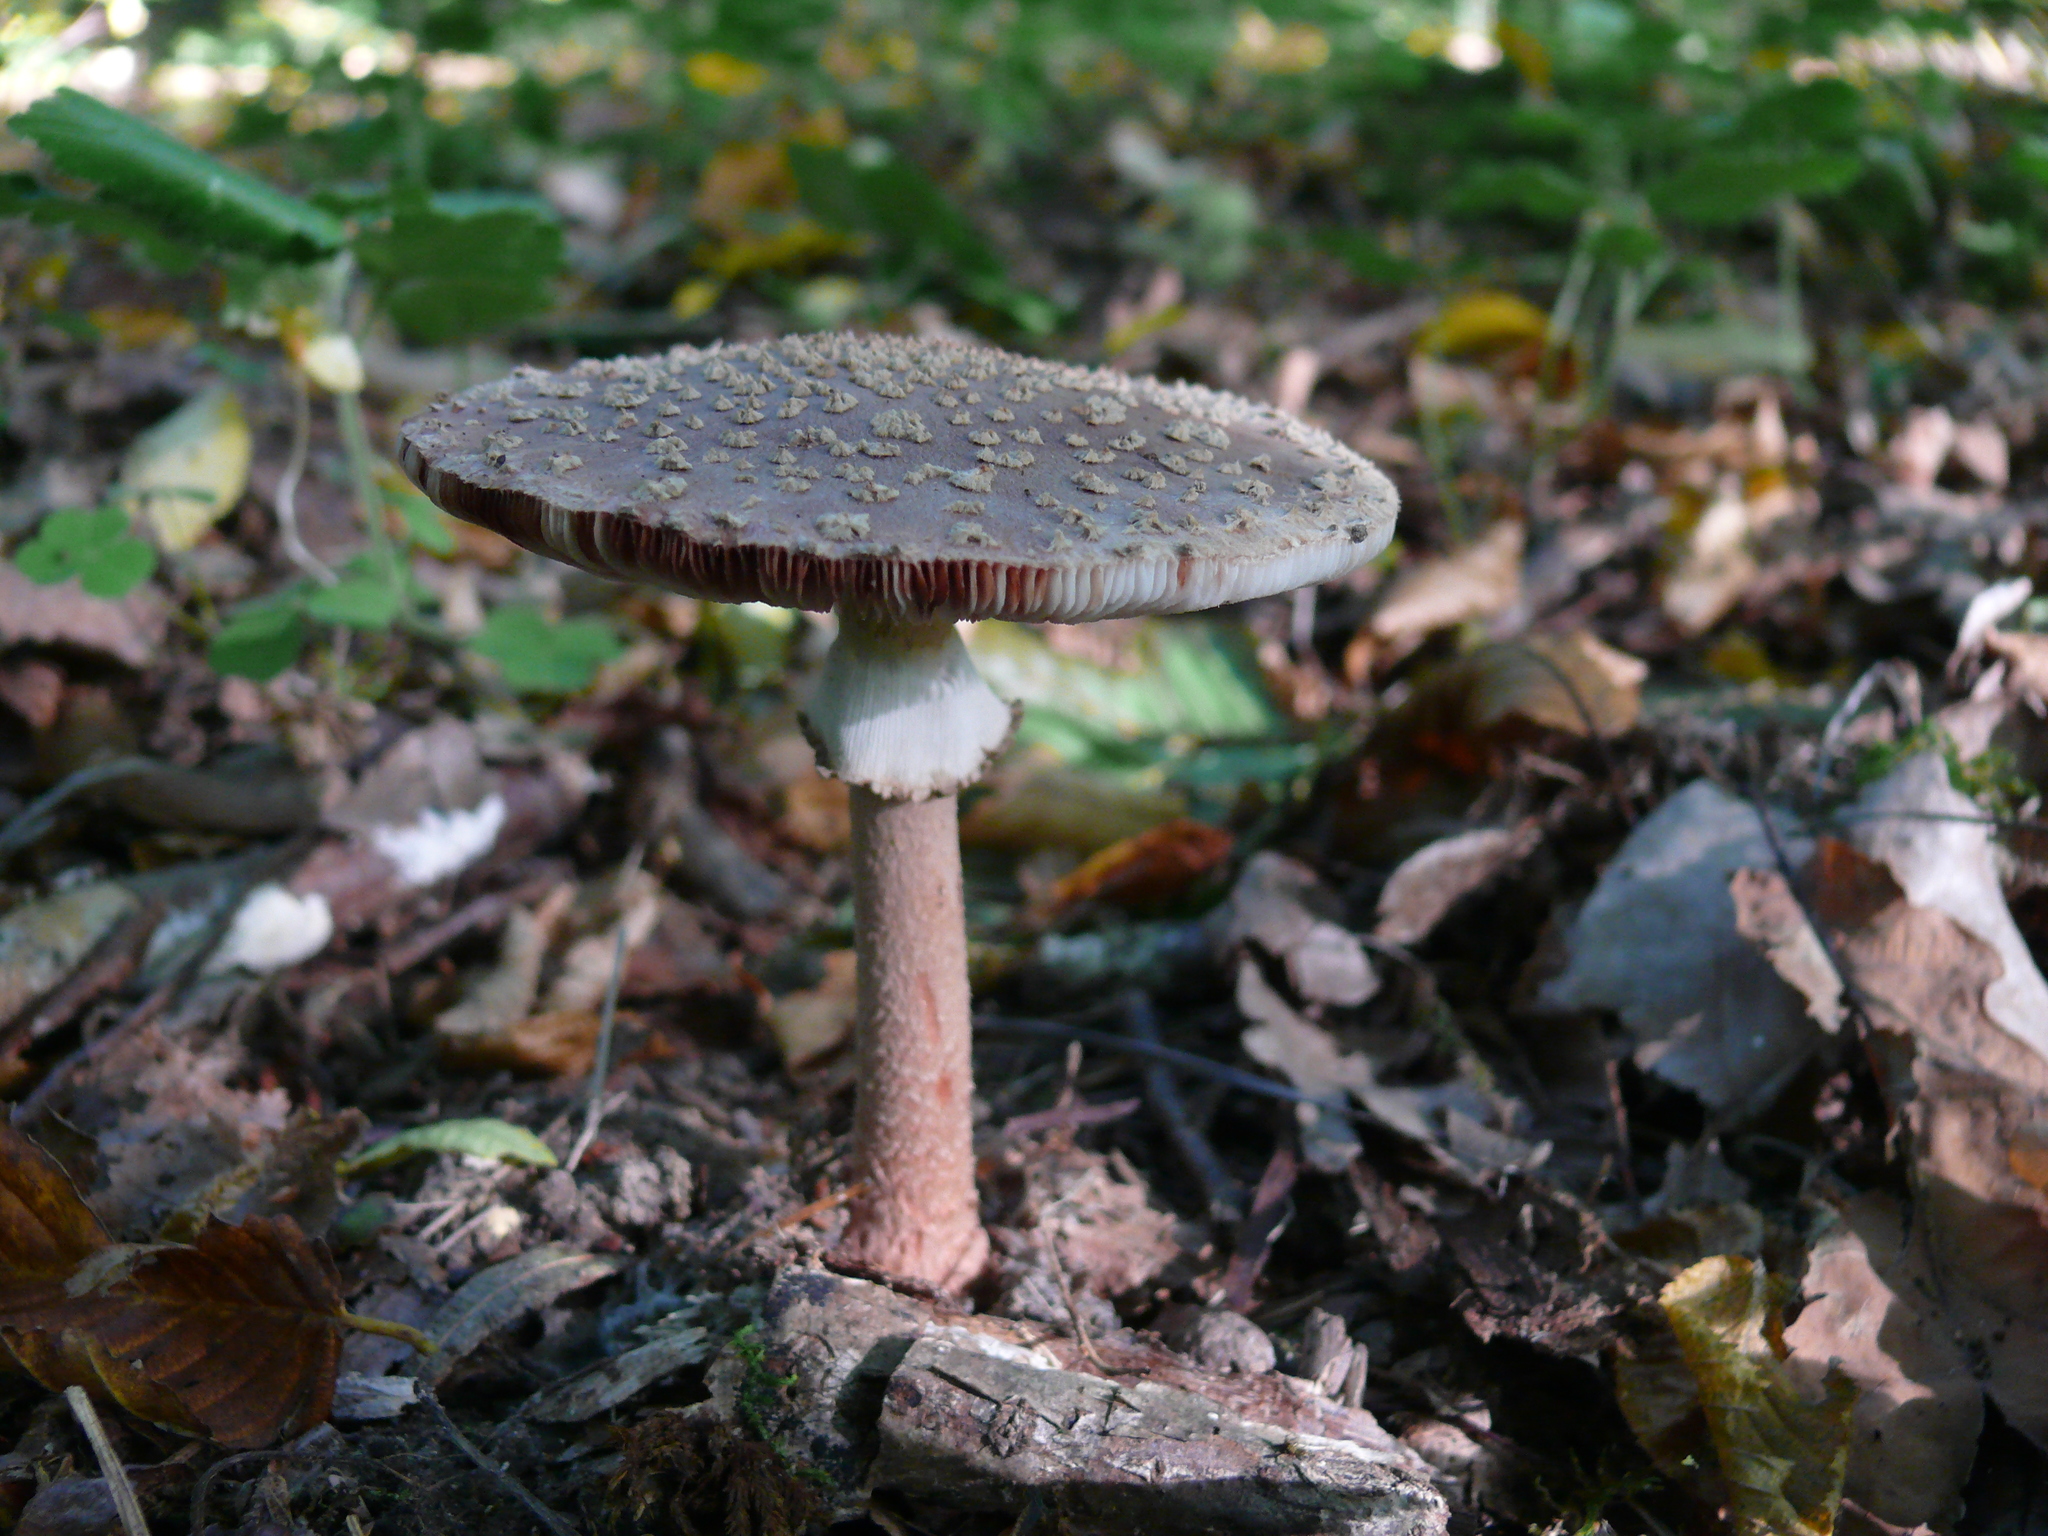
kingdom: Fungi
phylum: Basidiomycota
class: Agaricomycetes
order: Agaricales
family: Amanitaceae
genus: Amanita
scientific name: Amanita rubescens
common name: Blusher
